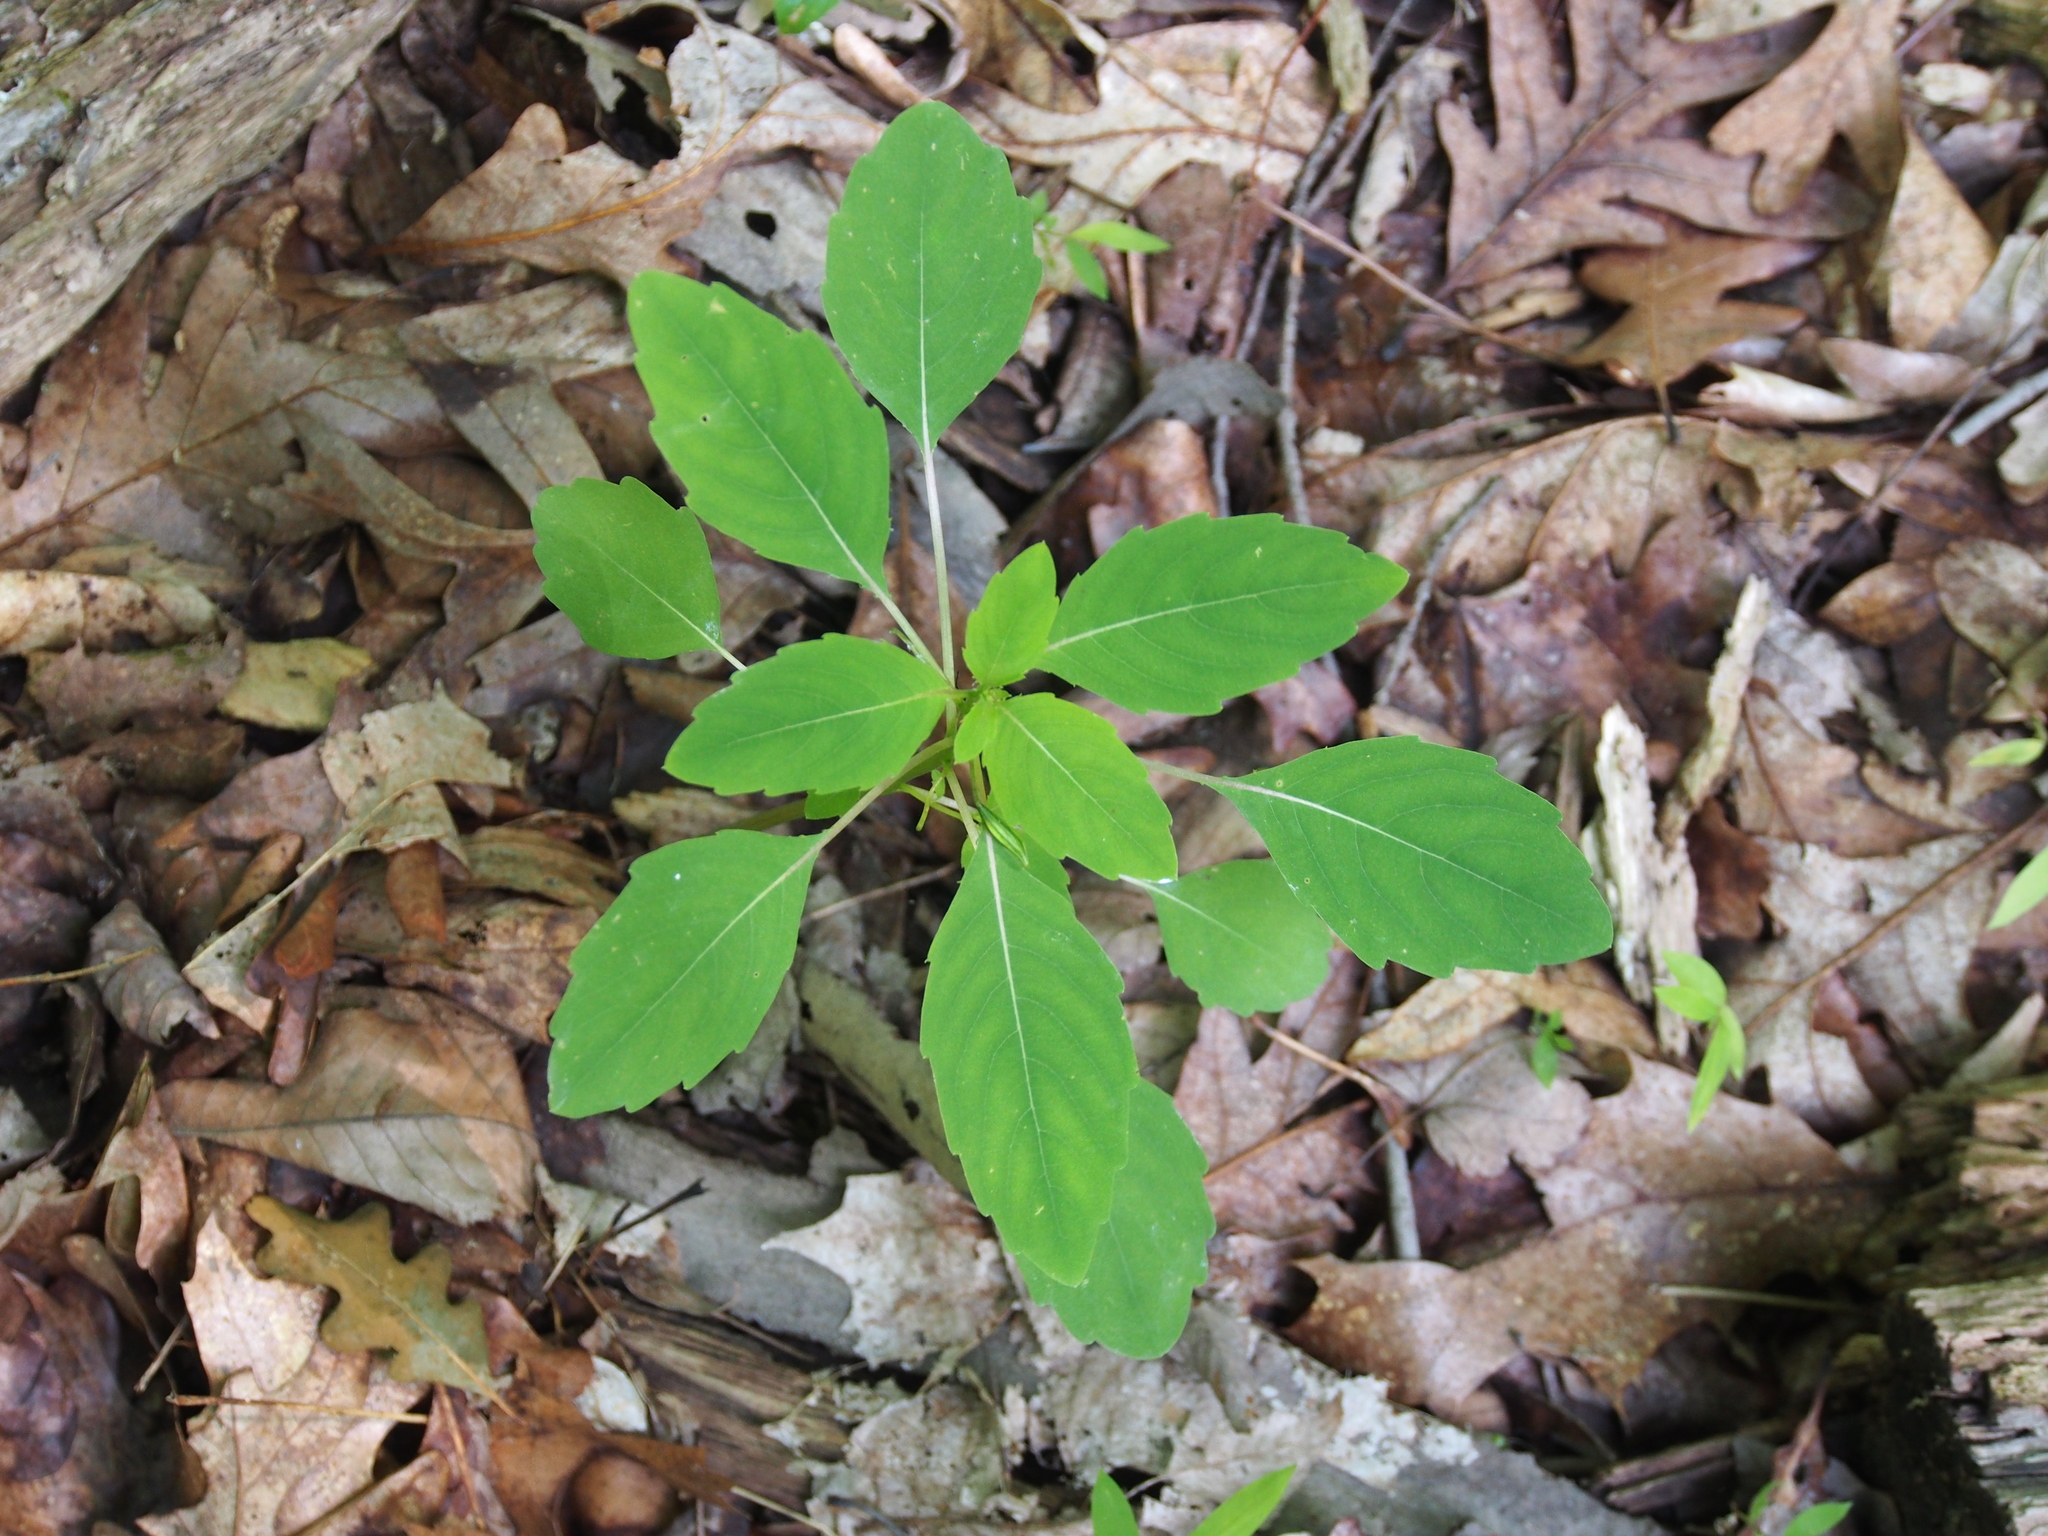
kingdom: Plantae
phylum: Tracheophyta
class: Magnoliopsida
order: Ericales
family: Balsaminaceae
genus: Impatiens
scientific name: Impatiens capensis
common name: Orange balsam
